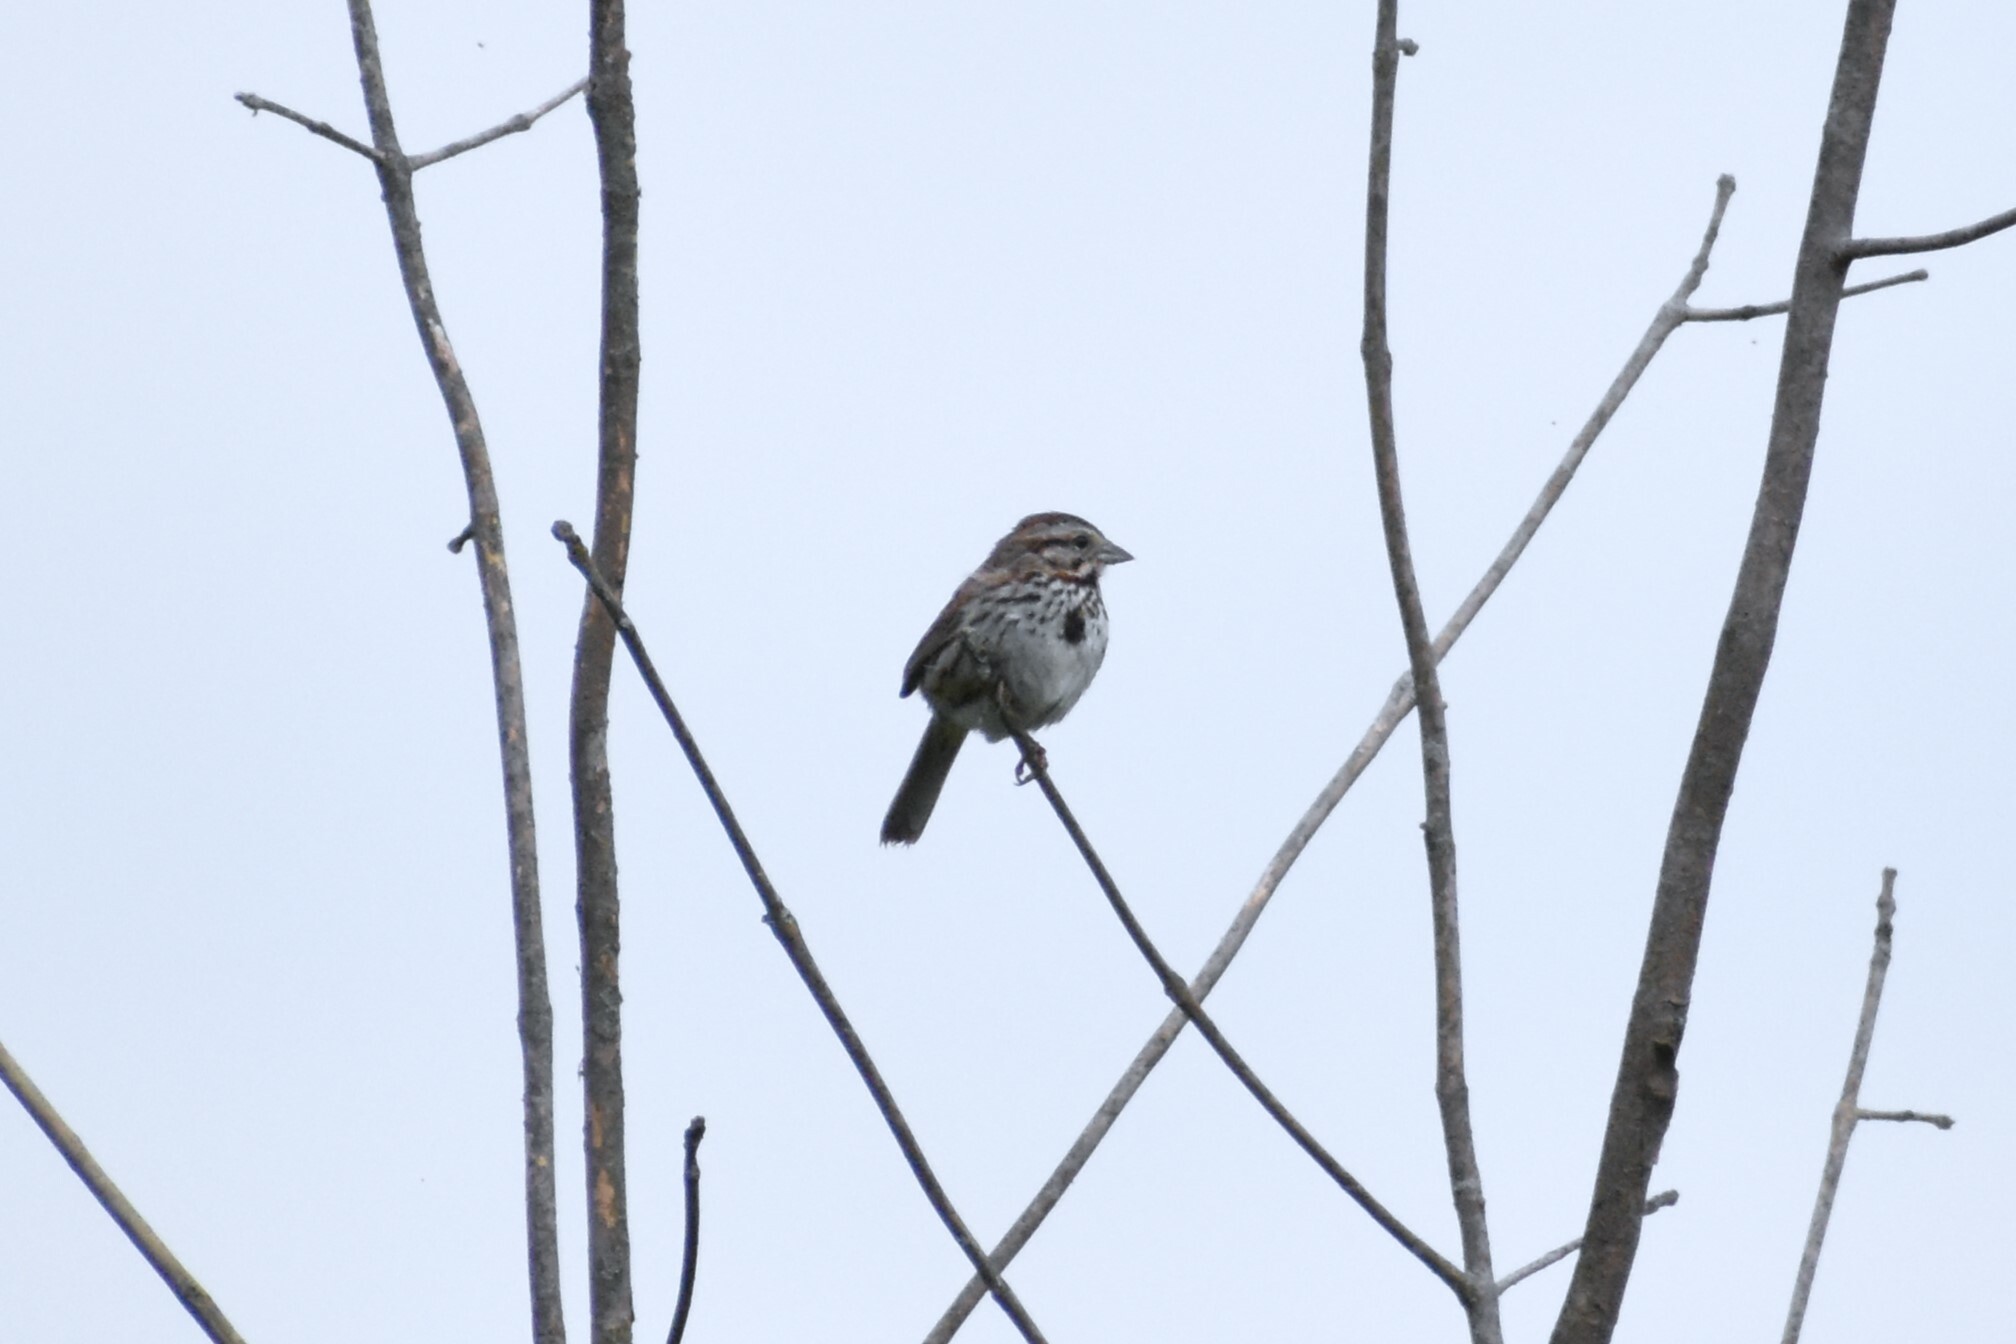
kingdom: Animalia
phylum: Chordata
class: Aves
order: Passeriformes
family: Passerellidae
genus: Melospiza
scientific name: Melospiza melodia
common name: Song sparrow
